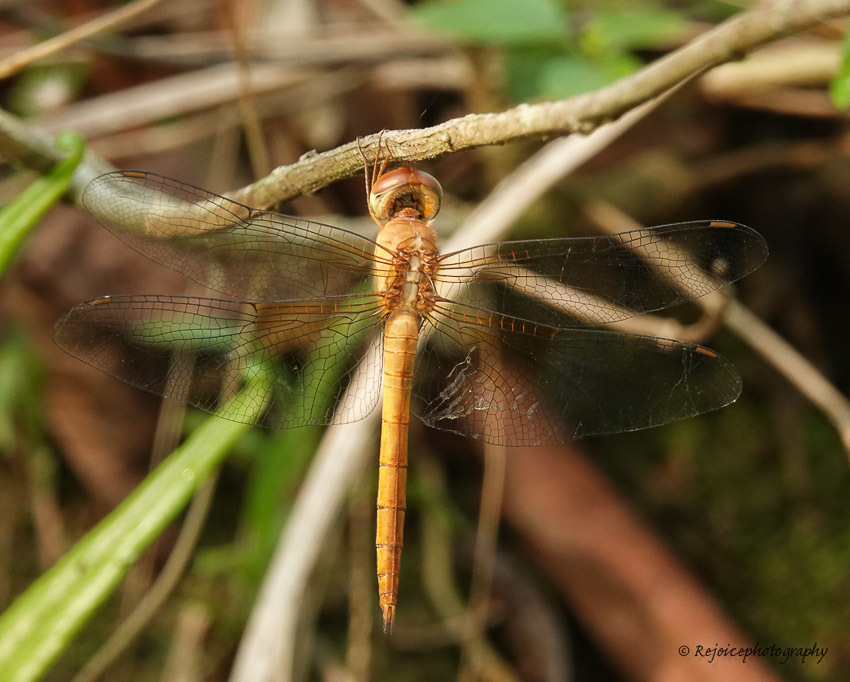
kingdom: Animalia
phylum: Arthropoda
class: Insecta
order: Odonata
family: Libellulidae
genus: Tholymis
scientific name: Tholymis tillarga
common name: Coral-tailed cloud wing
